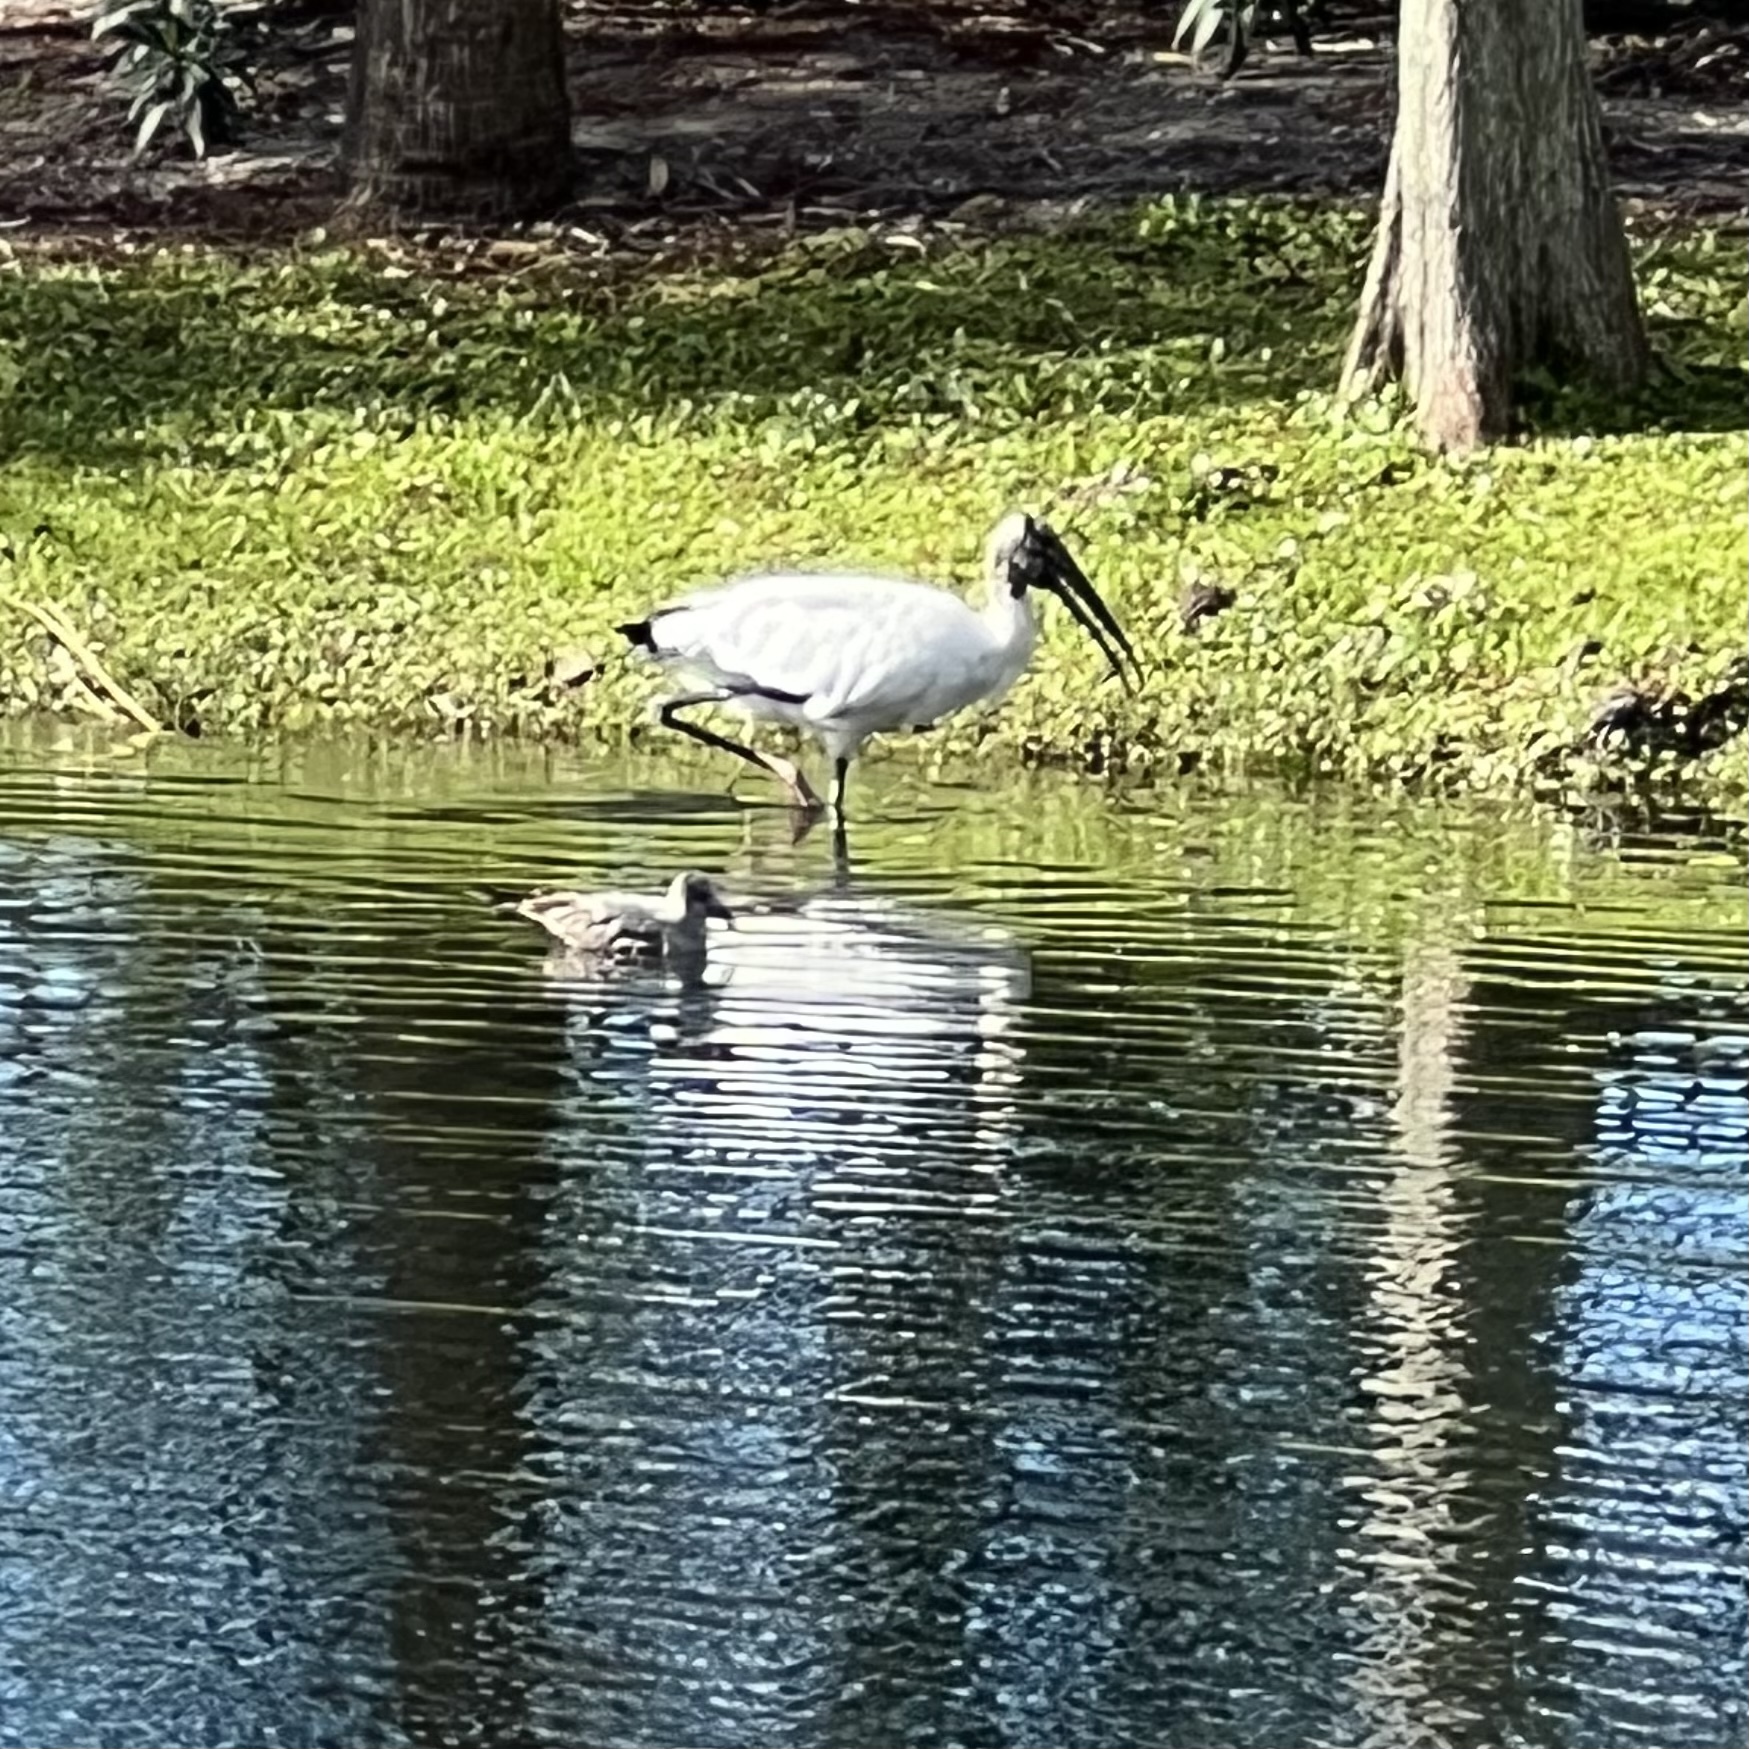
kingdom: Animalia
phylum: Chordata
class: Aves
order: Ciconiiformes
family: Ciconiidae
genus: Mycteria
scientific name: Mycteria americana
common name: Wood stork
